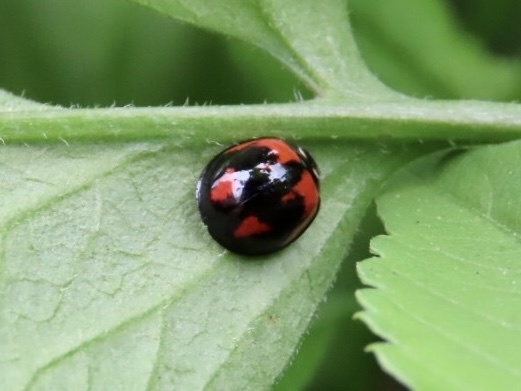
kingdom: Animalia
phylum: Arthropoda
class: Insecta
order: Coleoptera
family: Coccinellidae
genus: Cheilomenes
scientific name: Cheilomenes sexmaculata
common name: Ladybird beetle
